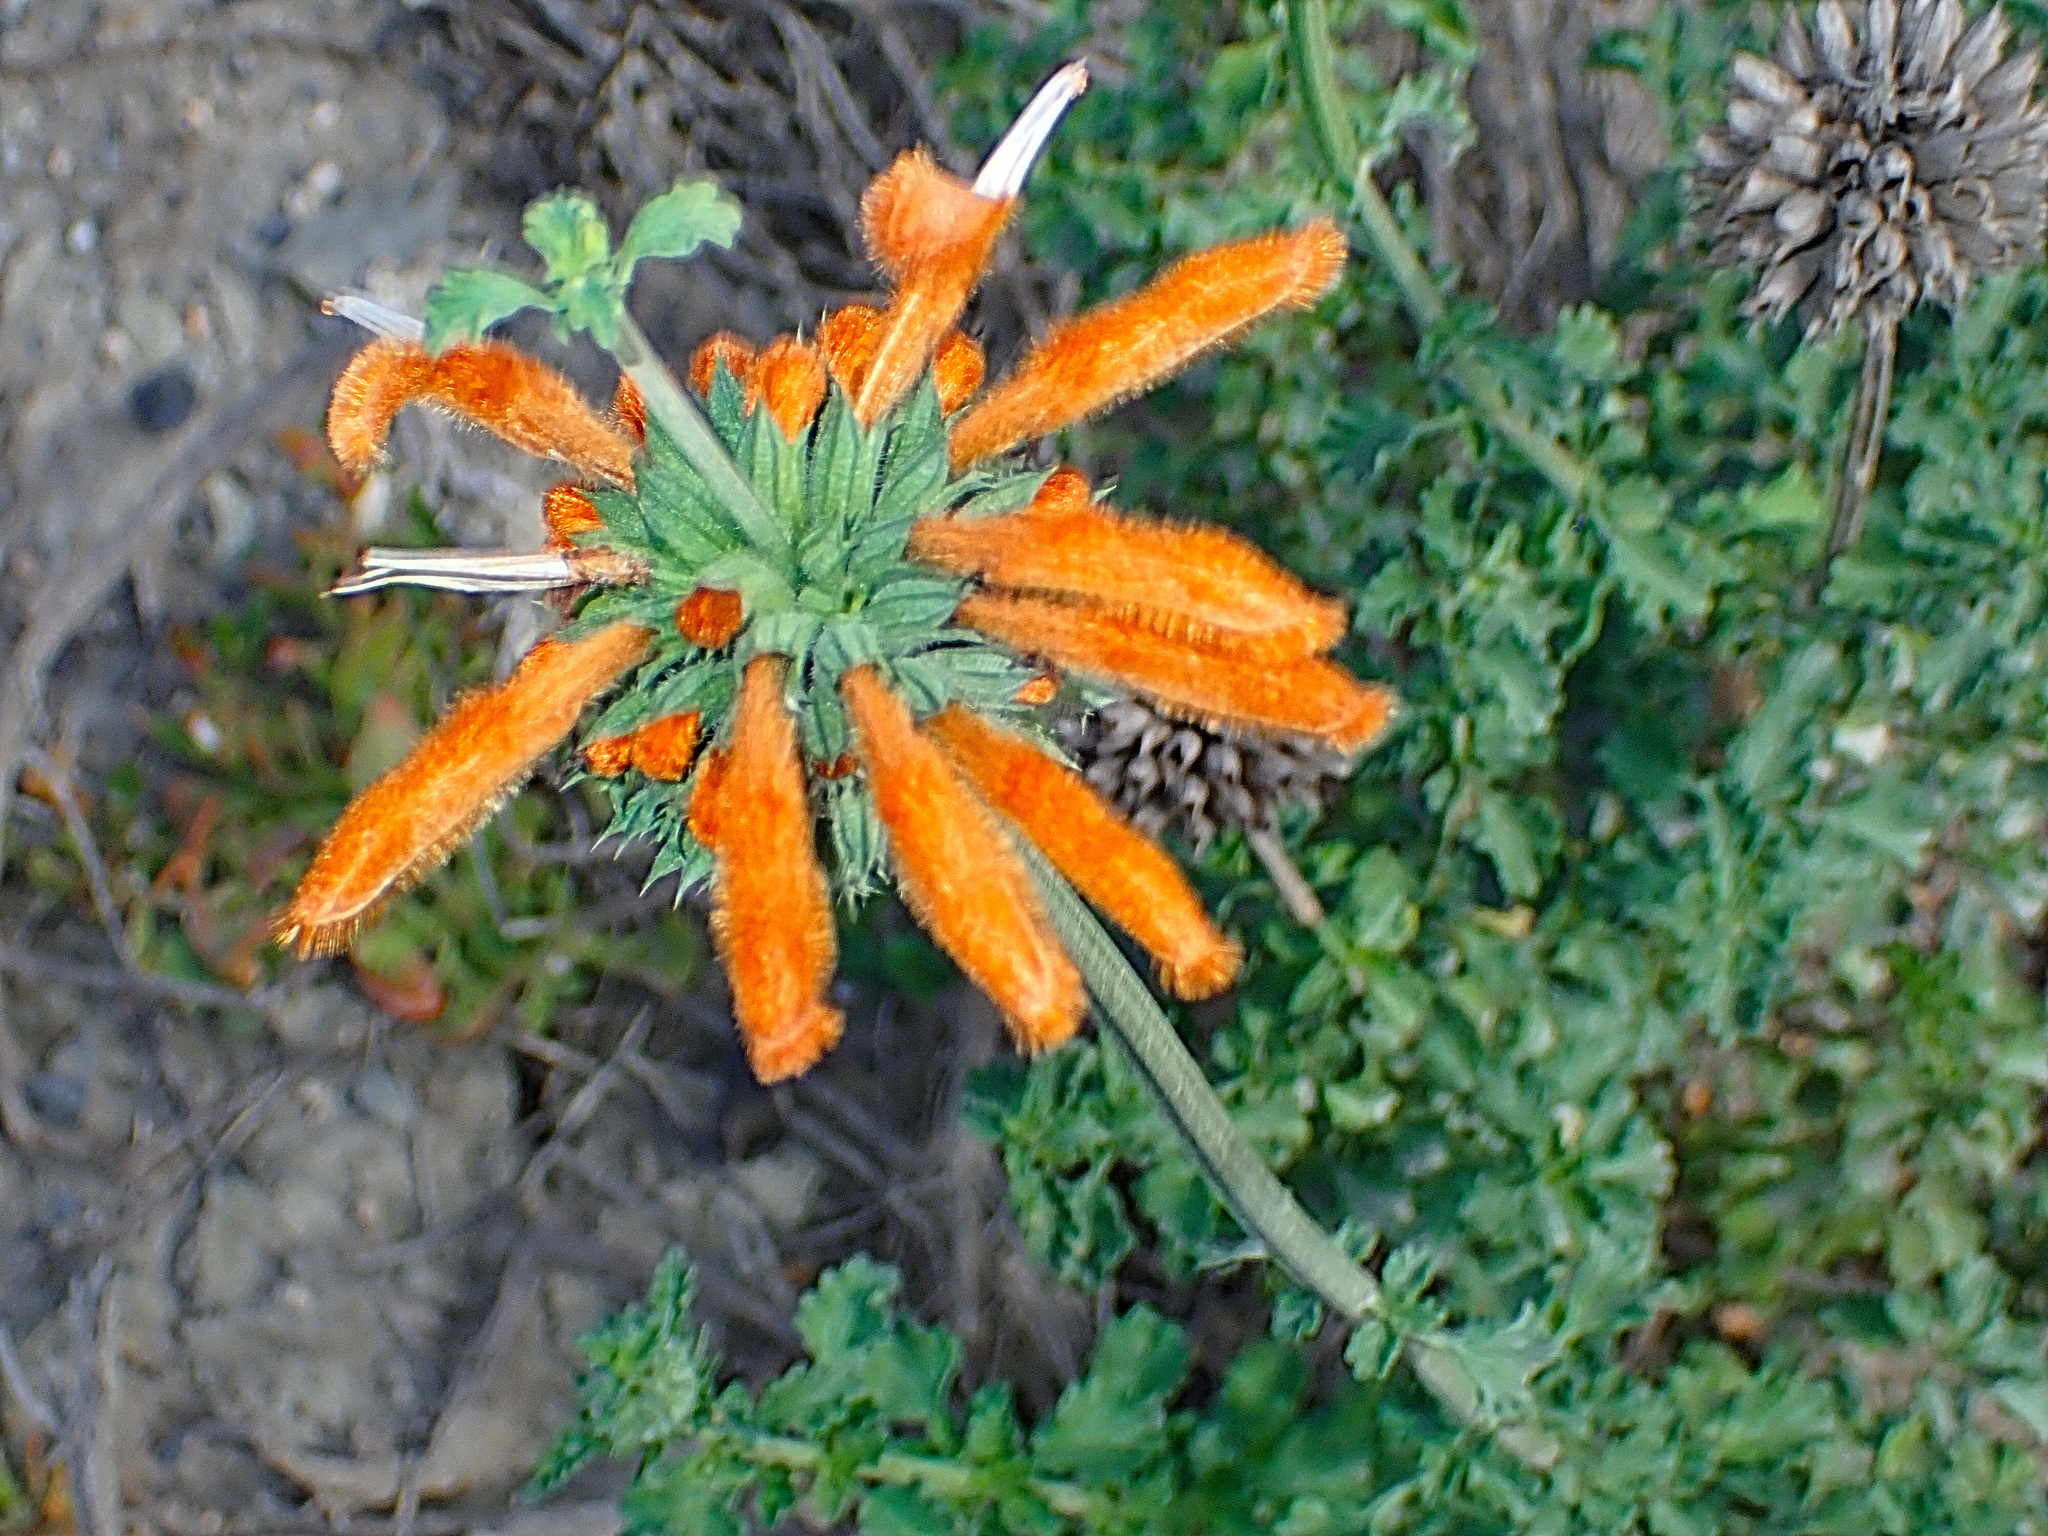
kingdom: Plantae
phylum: Tracheophyta
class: Magnoliopsida
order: Lamiales
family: Lamiaceae
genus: Leonotis
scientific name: Leonotis ocymifolia
